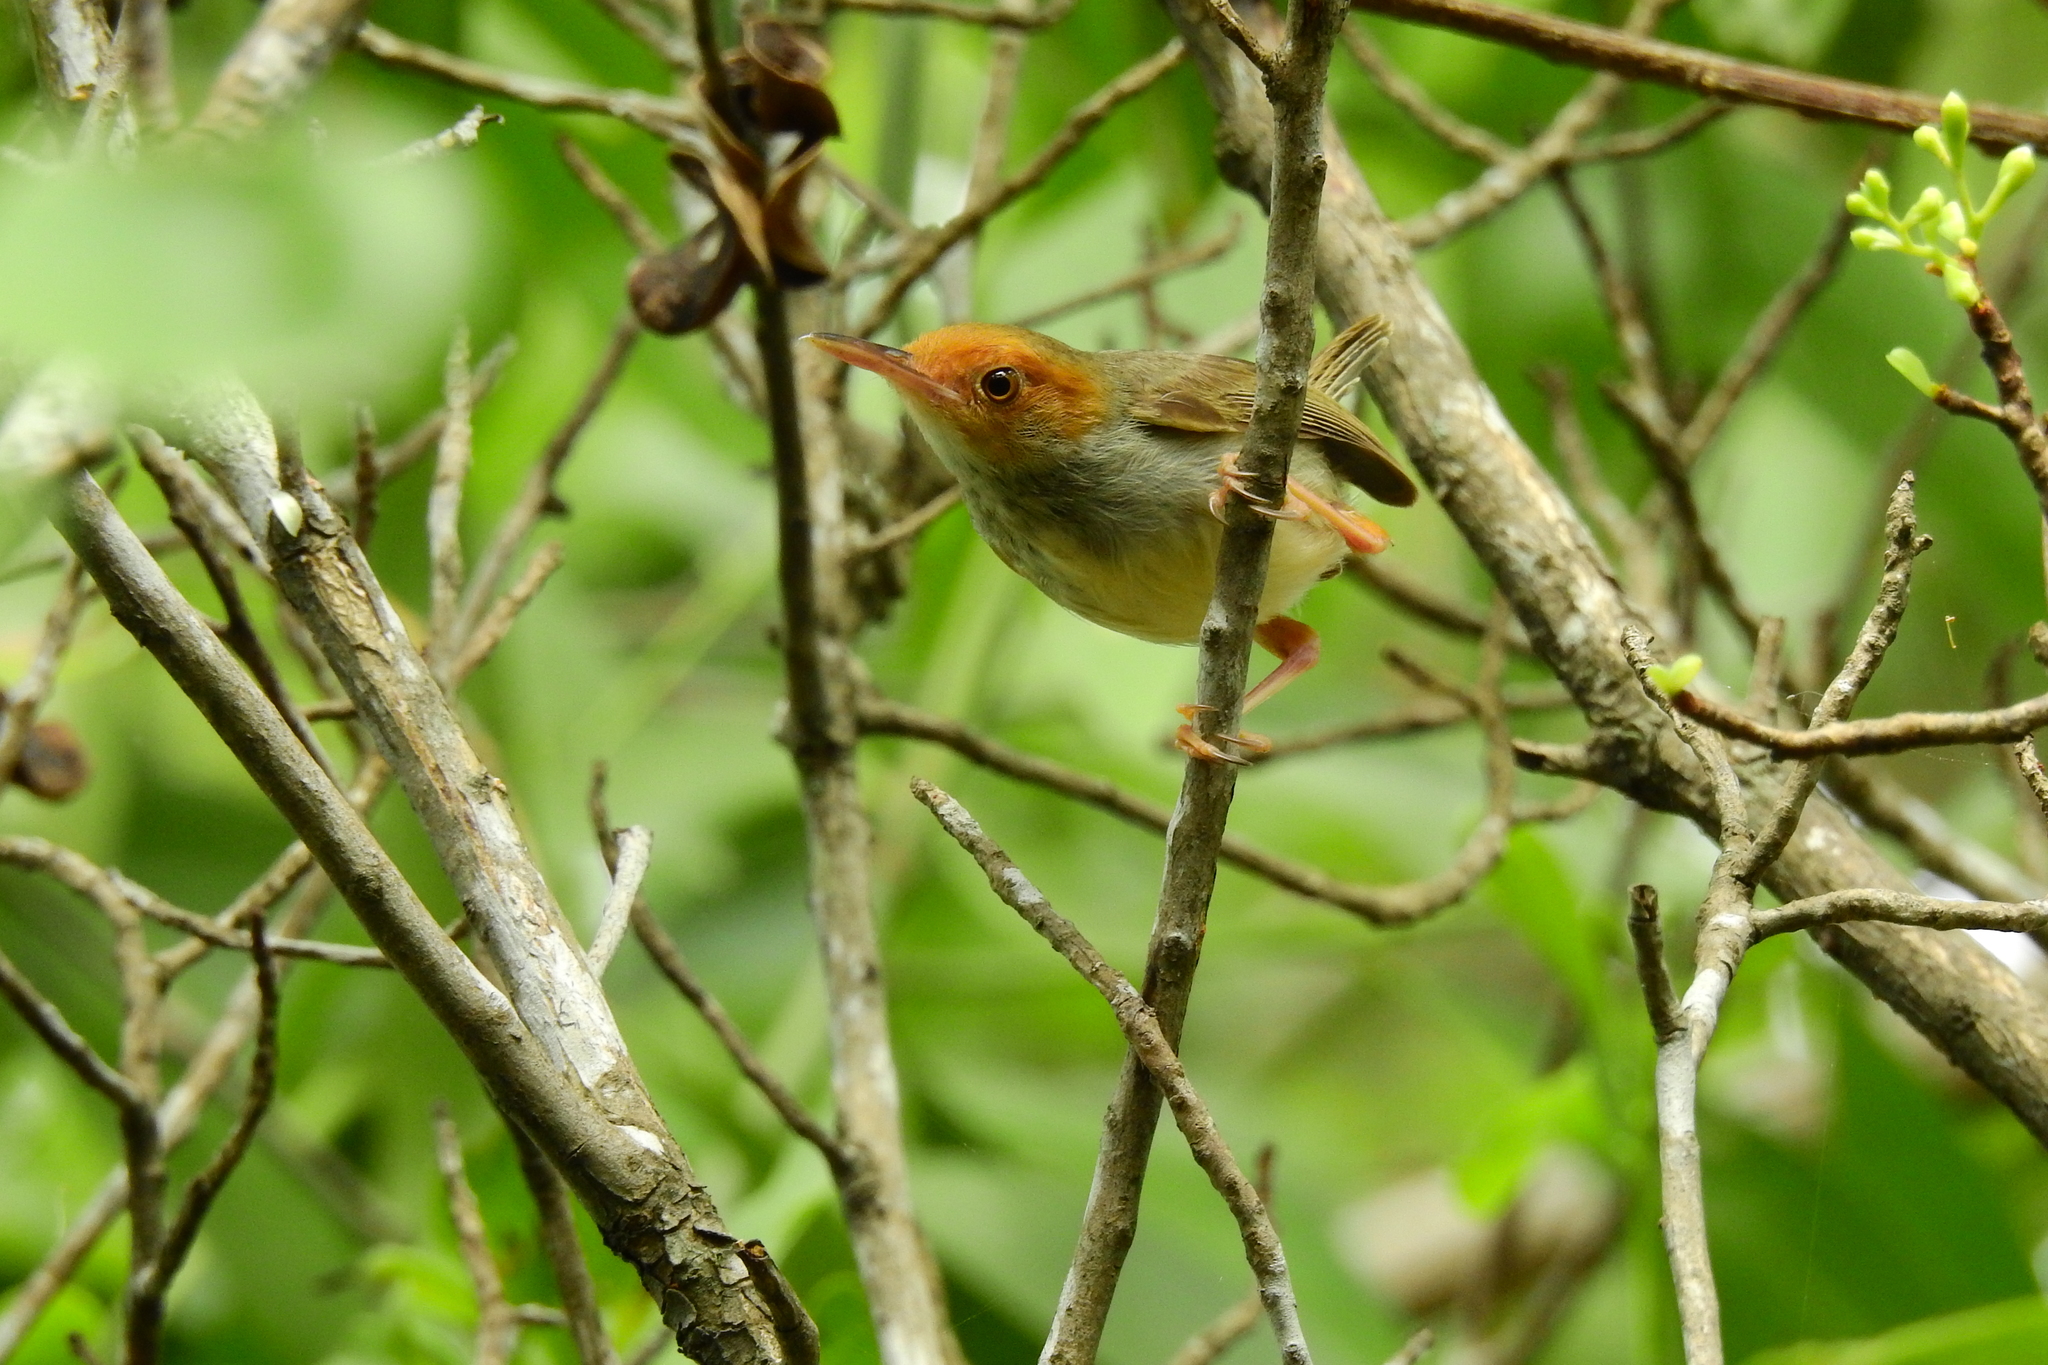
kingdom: Animalia
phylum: Chordata
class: Aves
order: Passeriformes
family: Cisticolidae
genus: Orthotomus
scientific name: Orthotomus sepium
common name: Olive-backed tailorbird
